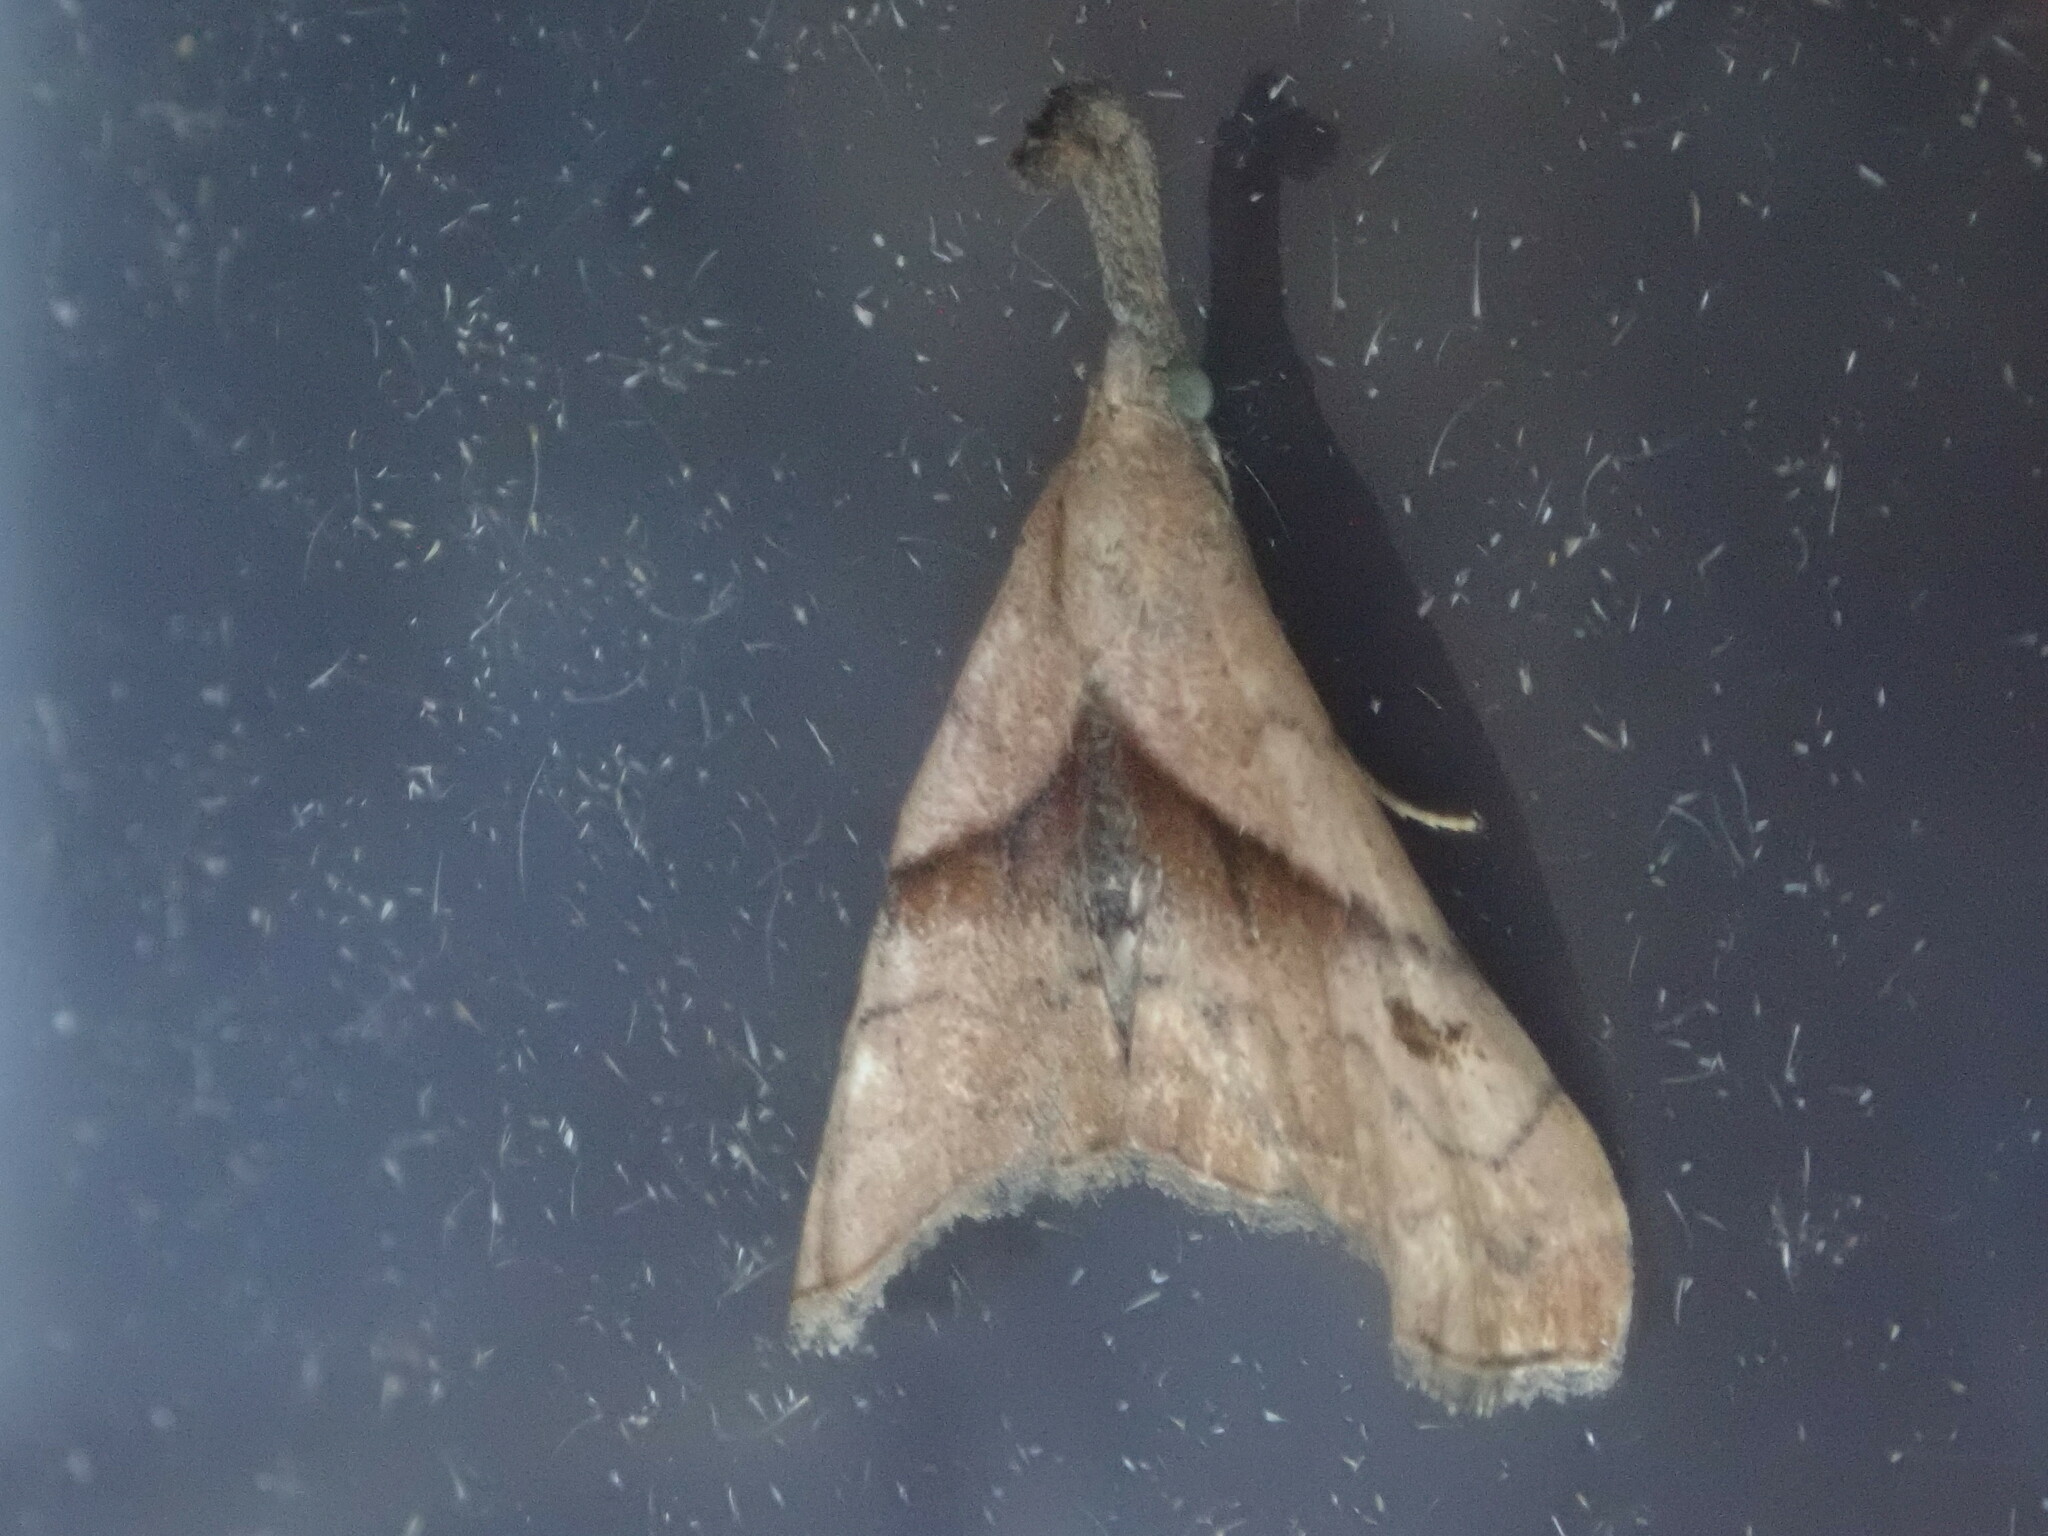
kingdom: Animalia
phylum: Arthropoda
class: Insecta
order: Lepidoptera
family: Erebidae
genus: Palthis
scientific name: Palthis angulalis
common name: Dark-spotted palthis moth
